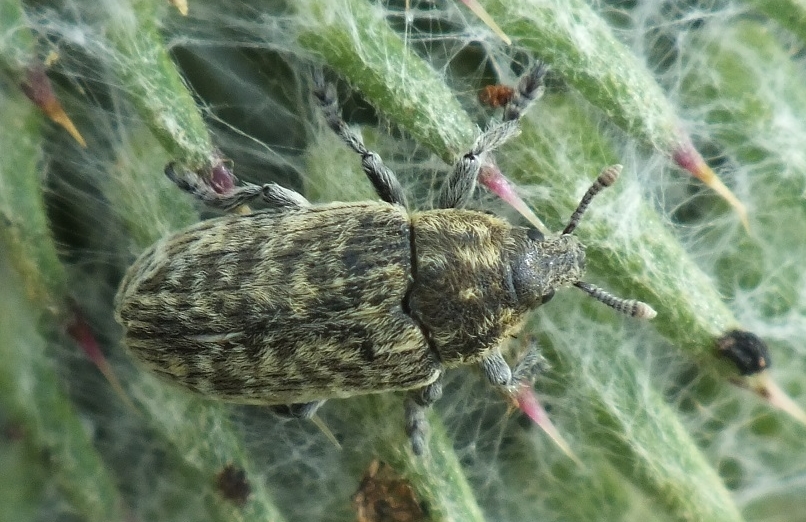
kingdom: Animalia
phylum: Arthropoda
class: Insecta
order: Coleoptera
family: Curculionidae
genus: Rhinocyllus
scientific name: Rhinocyllus conicus
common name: Weevil
